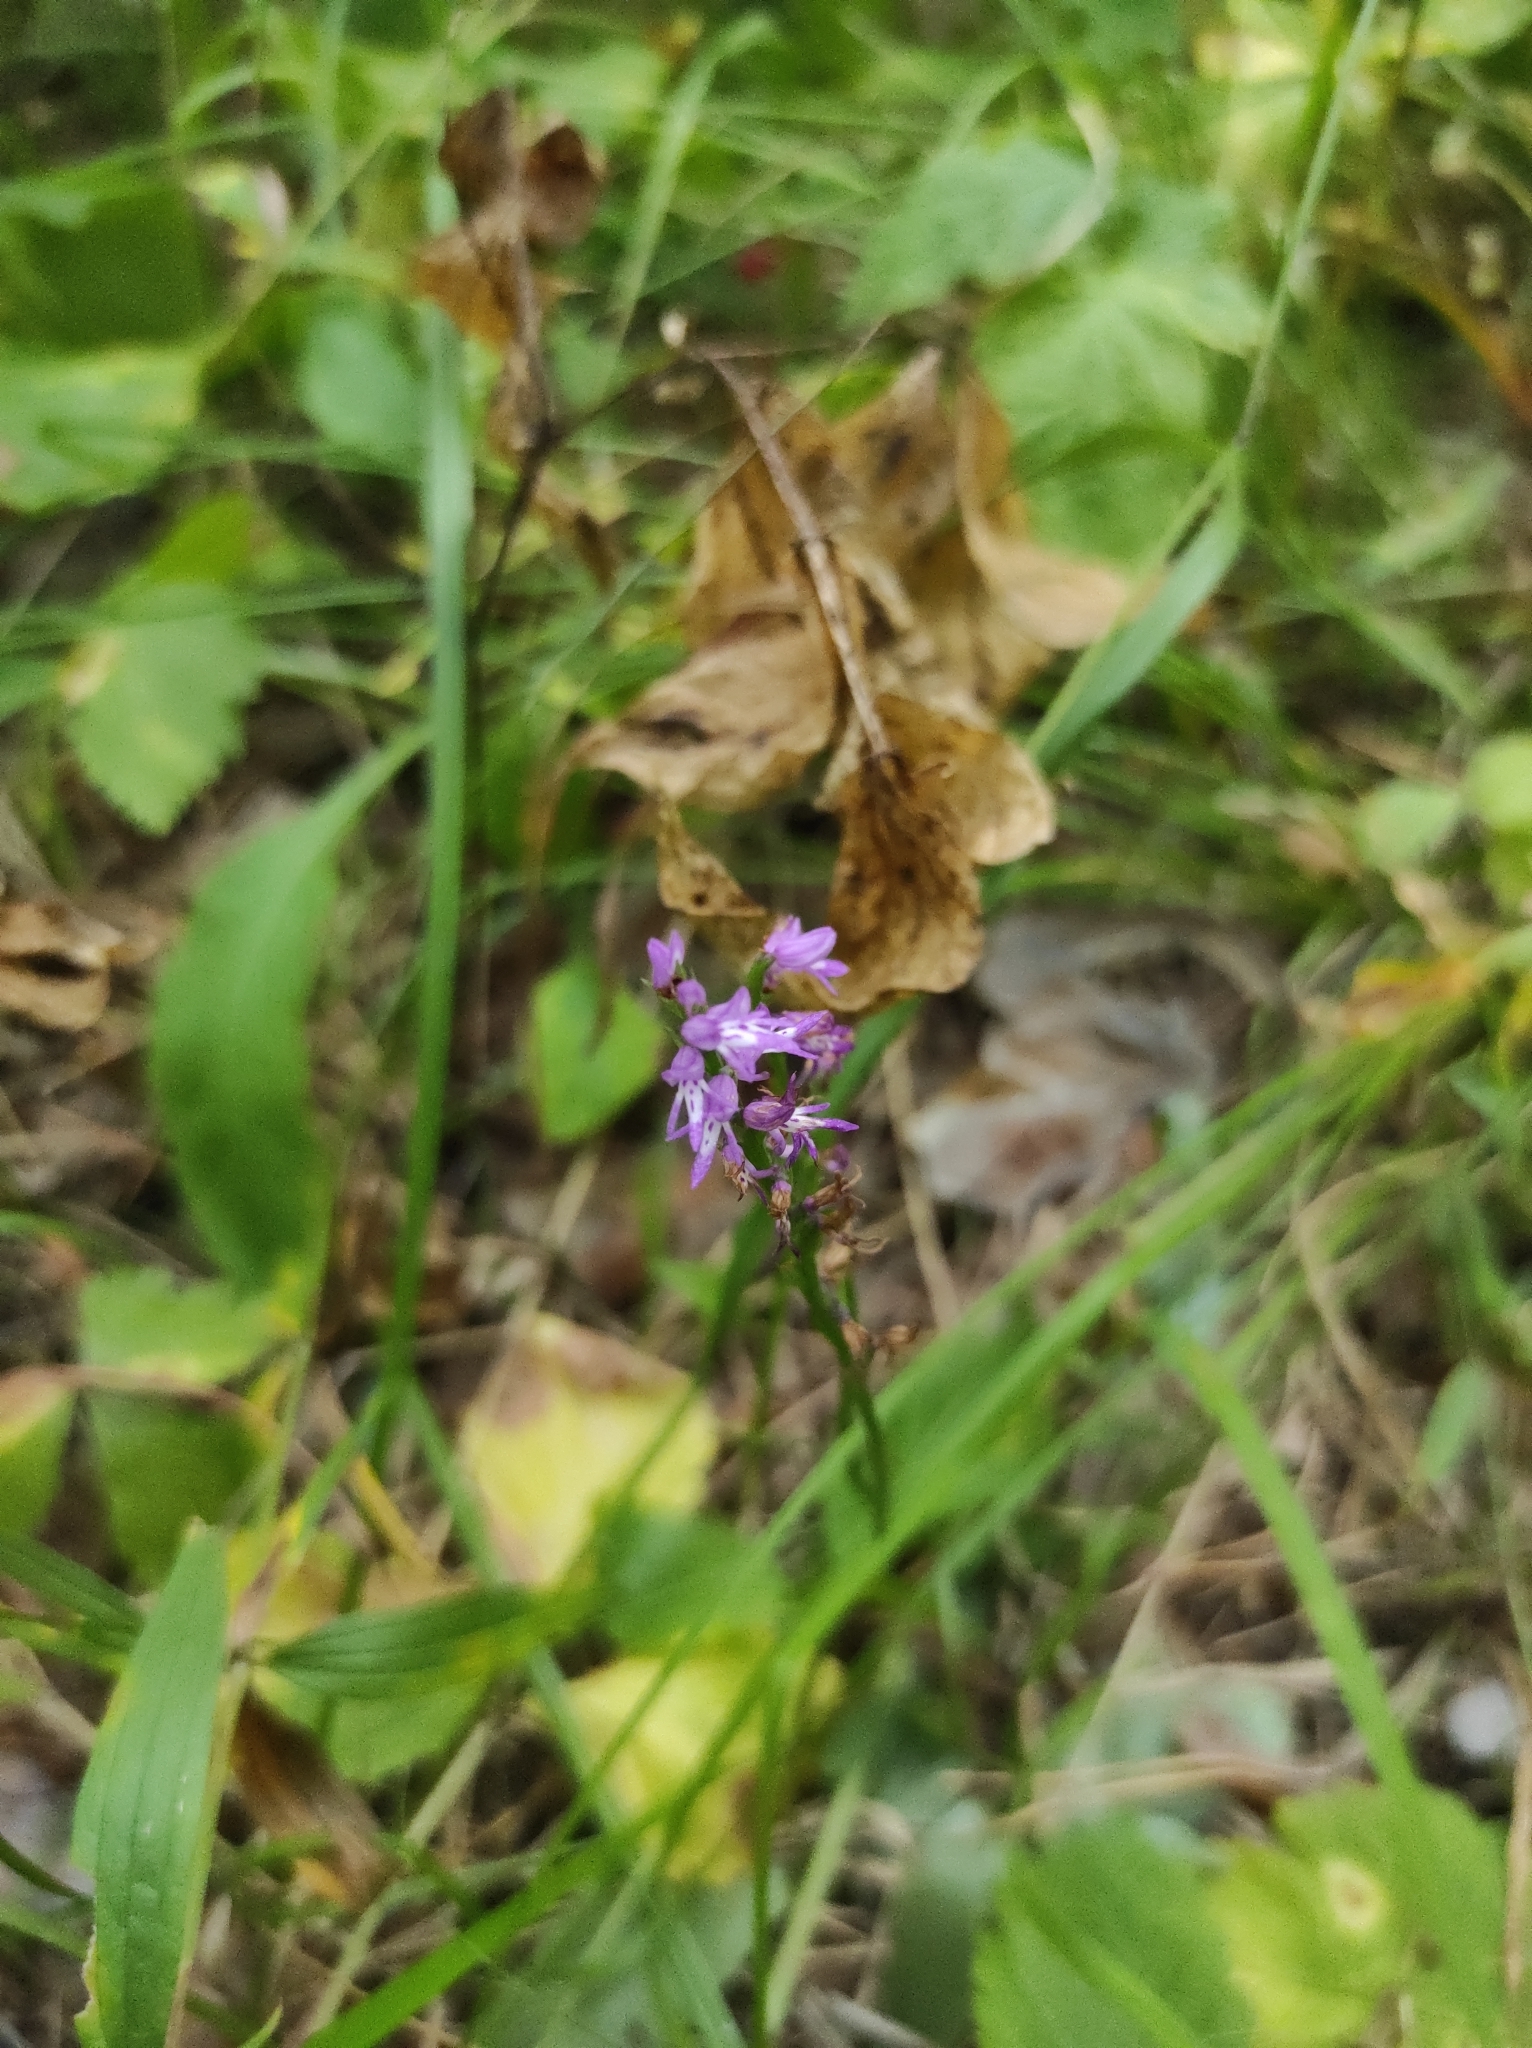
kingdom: Plantae
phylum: Tracheophyta
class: Liliopsida
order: Asparagales
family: Orchidaceae
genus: Hemipilia
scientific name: Hemipilia cucullata
